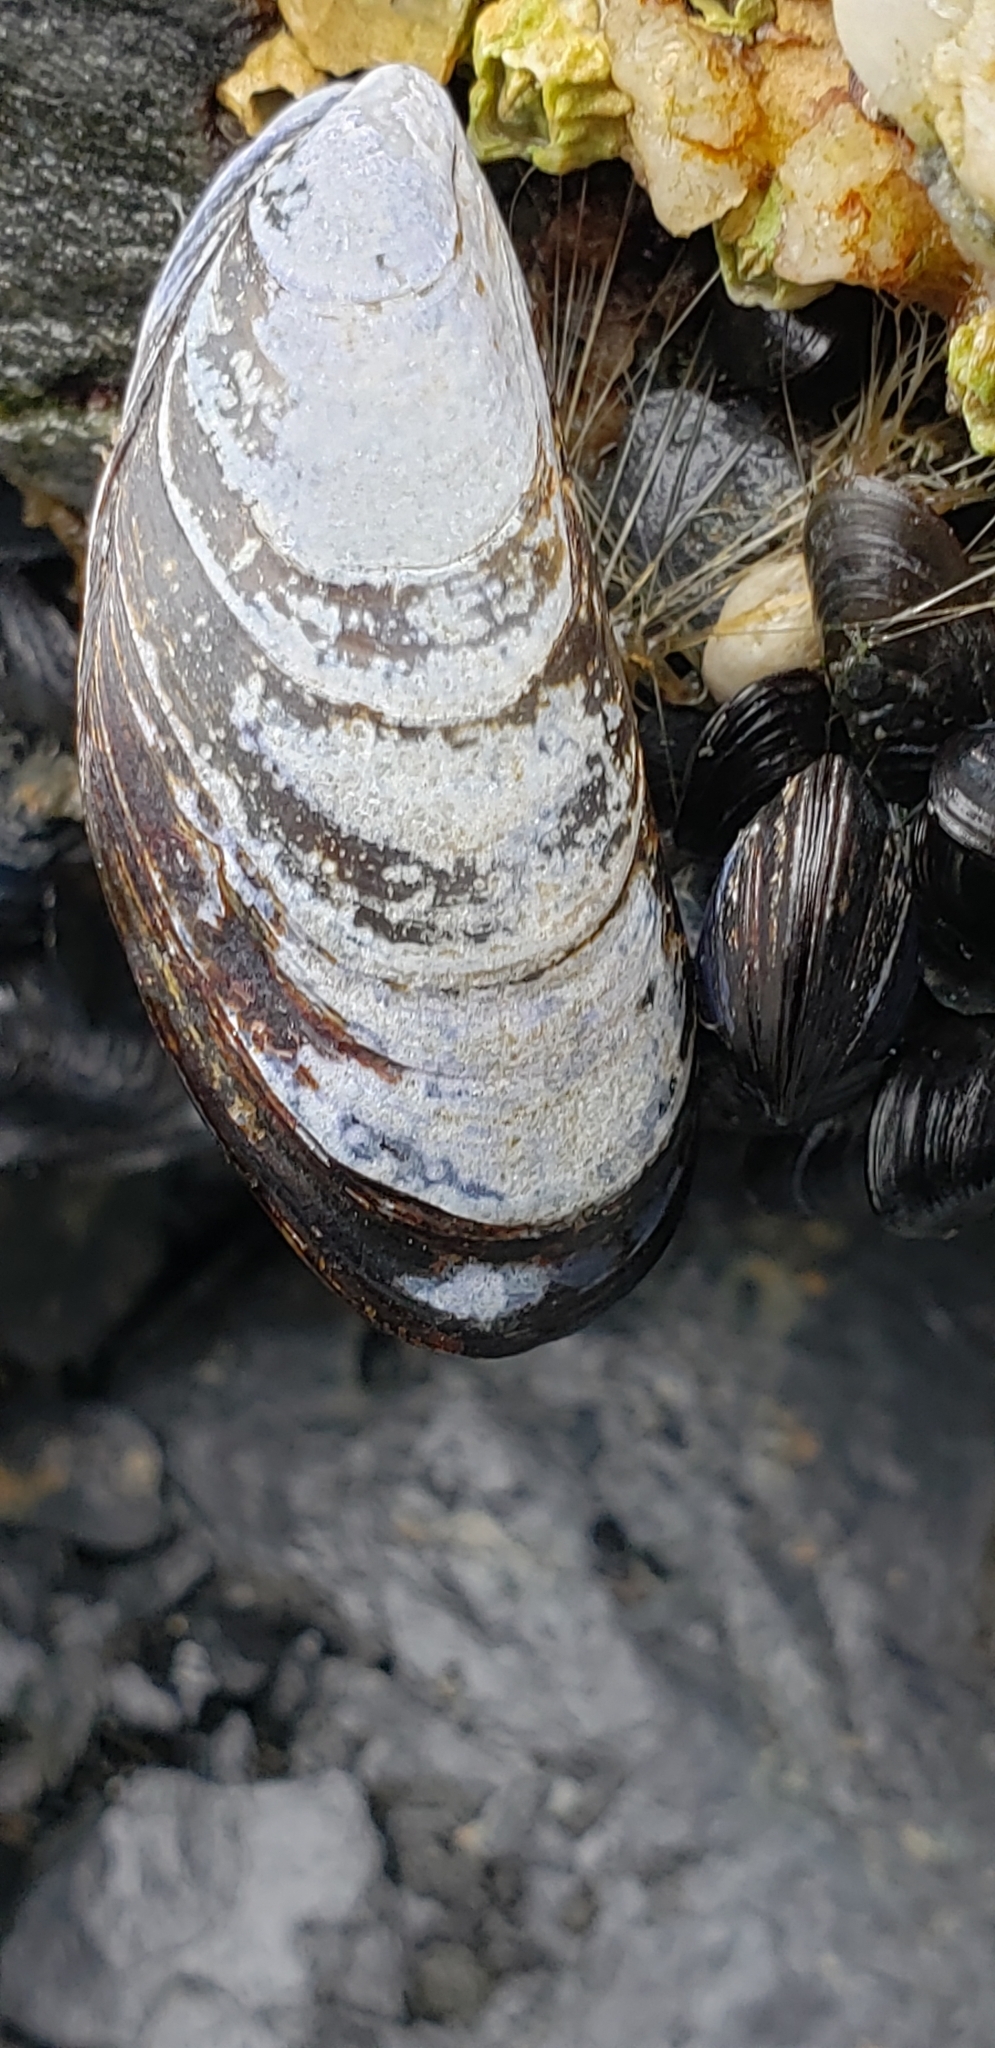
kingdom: Animalia
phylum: Mollusca
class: Bivalvia
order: Mytilida
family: Mytilidae
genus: Mytilus
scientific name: Mytilus trossulus
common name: Northern blue mussel
